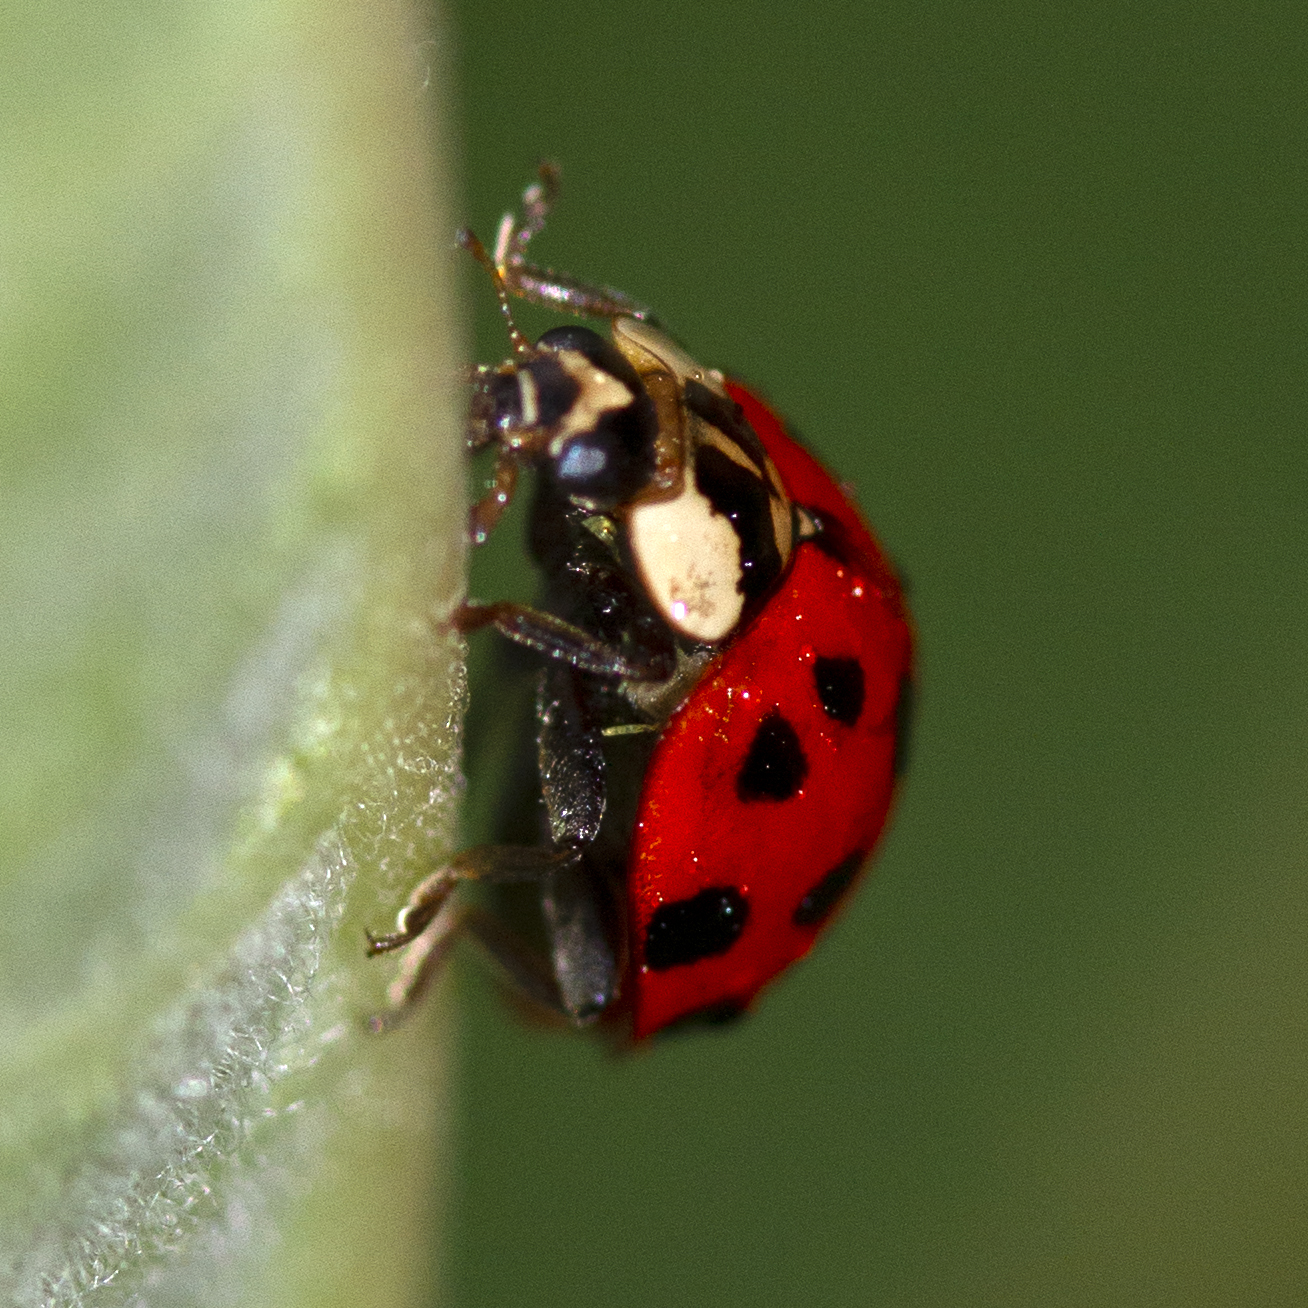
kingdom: Animalia
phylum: Arthropoda
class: Insecta
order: Coleoptera
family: Coccinellidae
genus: Harmonia
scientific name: Harmonia axyridis
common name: Harlequin ladybird
